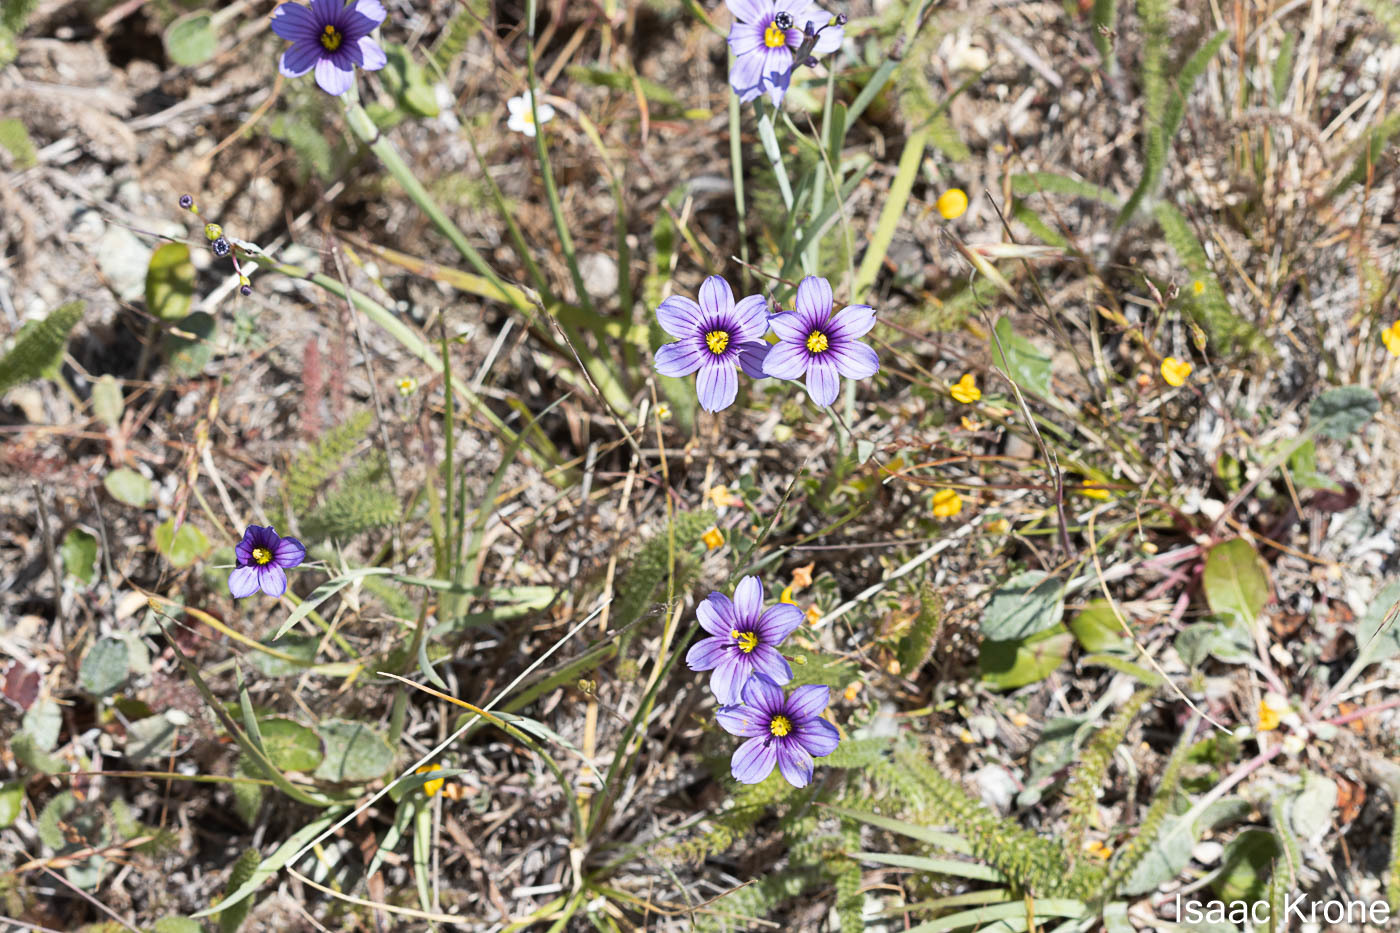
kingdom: Plantae
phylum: Tracheophyta
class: Liliopsida
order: Asparagales
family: Iridaceae
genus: Sisyrinchium
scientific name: Sisyrinchium bellum
